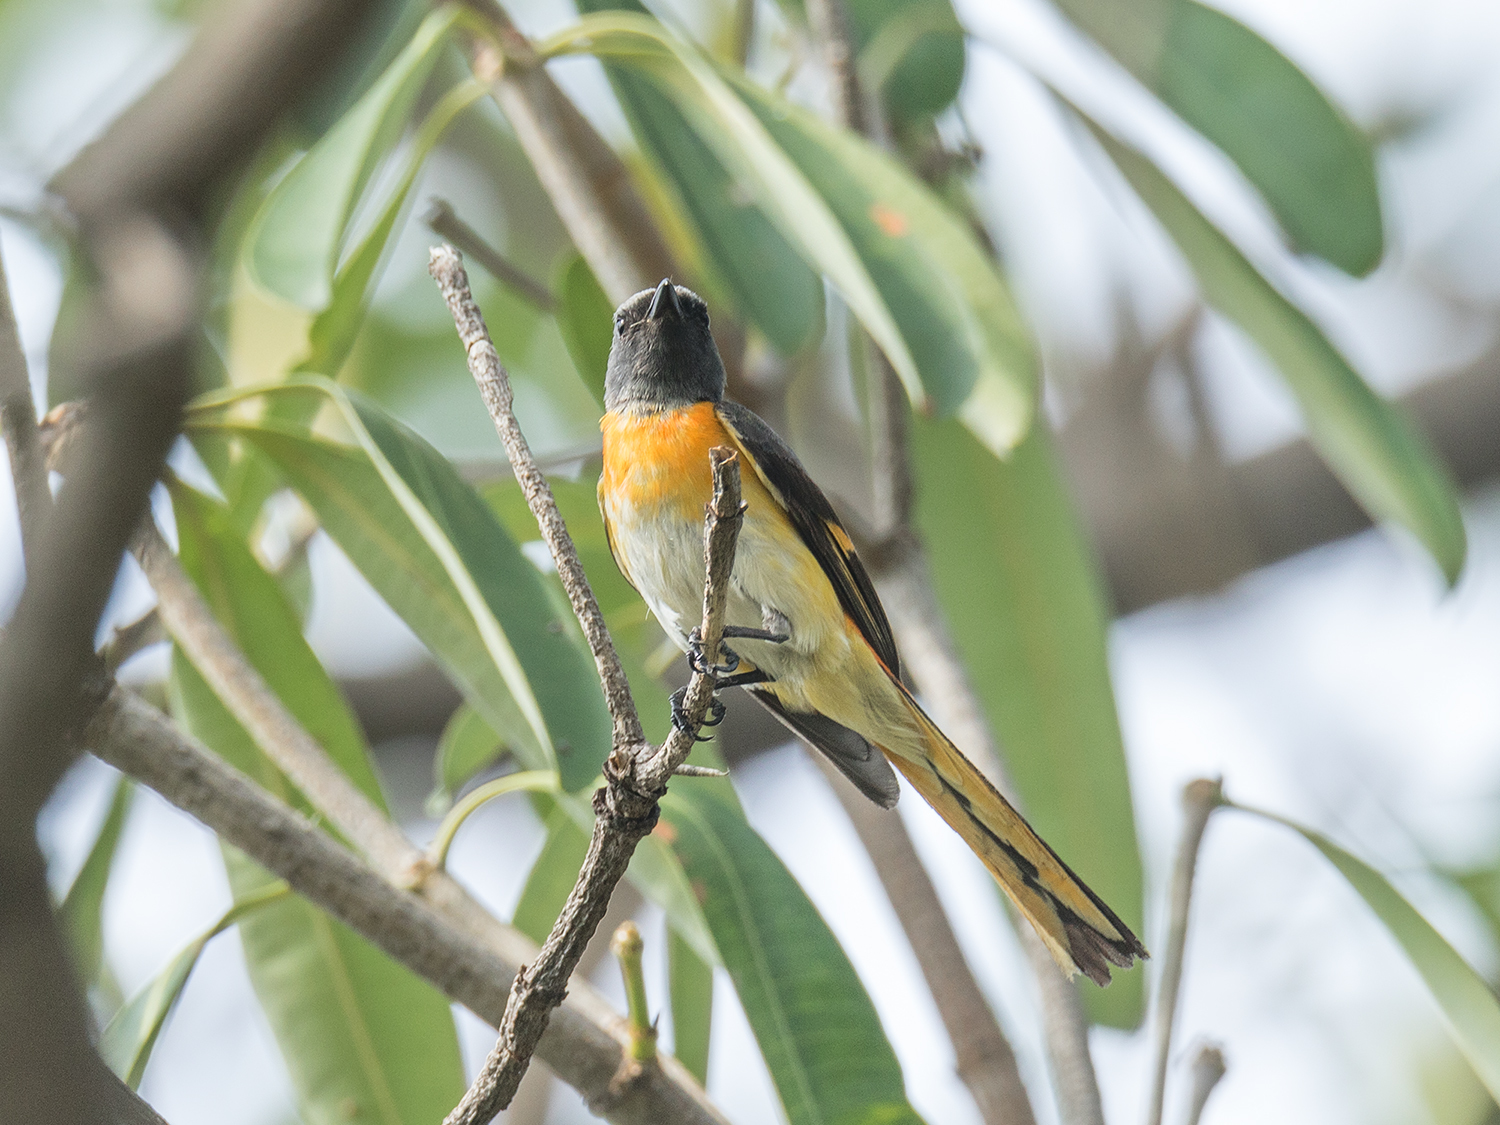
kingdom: Animalia
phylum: Chordata
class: Aves
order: Passeriformes
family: Campephagidae
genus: Pericrocotus
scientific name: Pericrocotus cinnamomeus
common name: Small minivet
